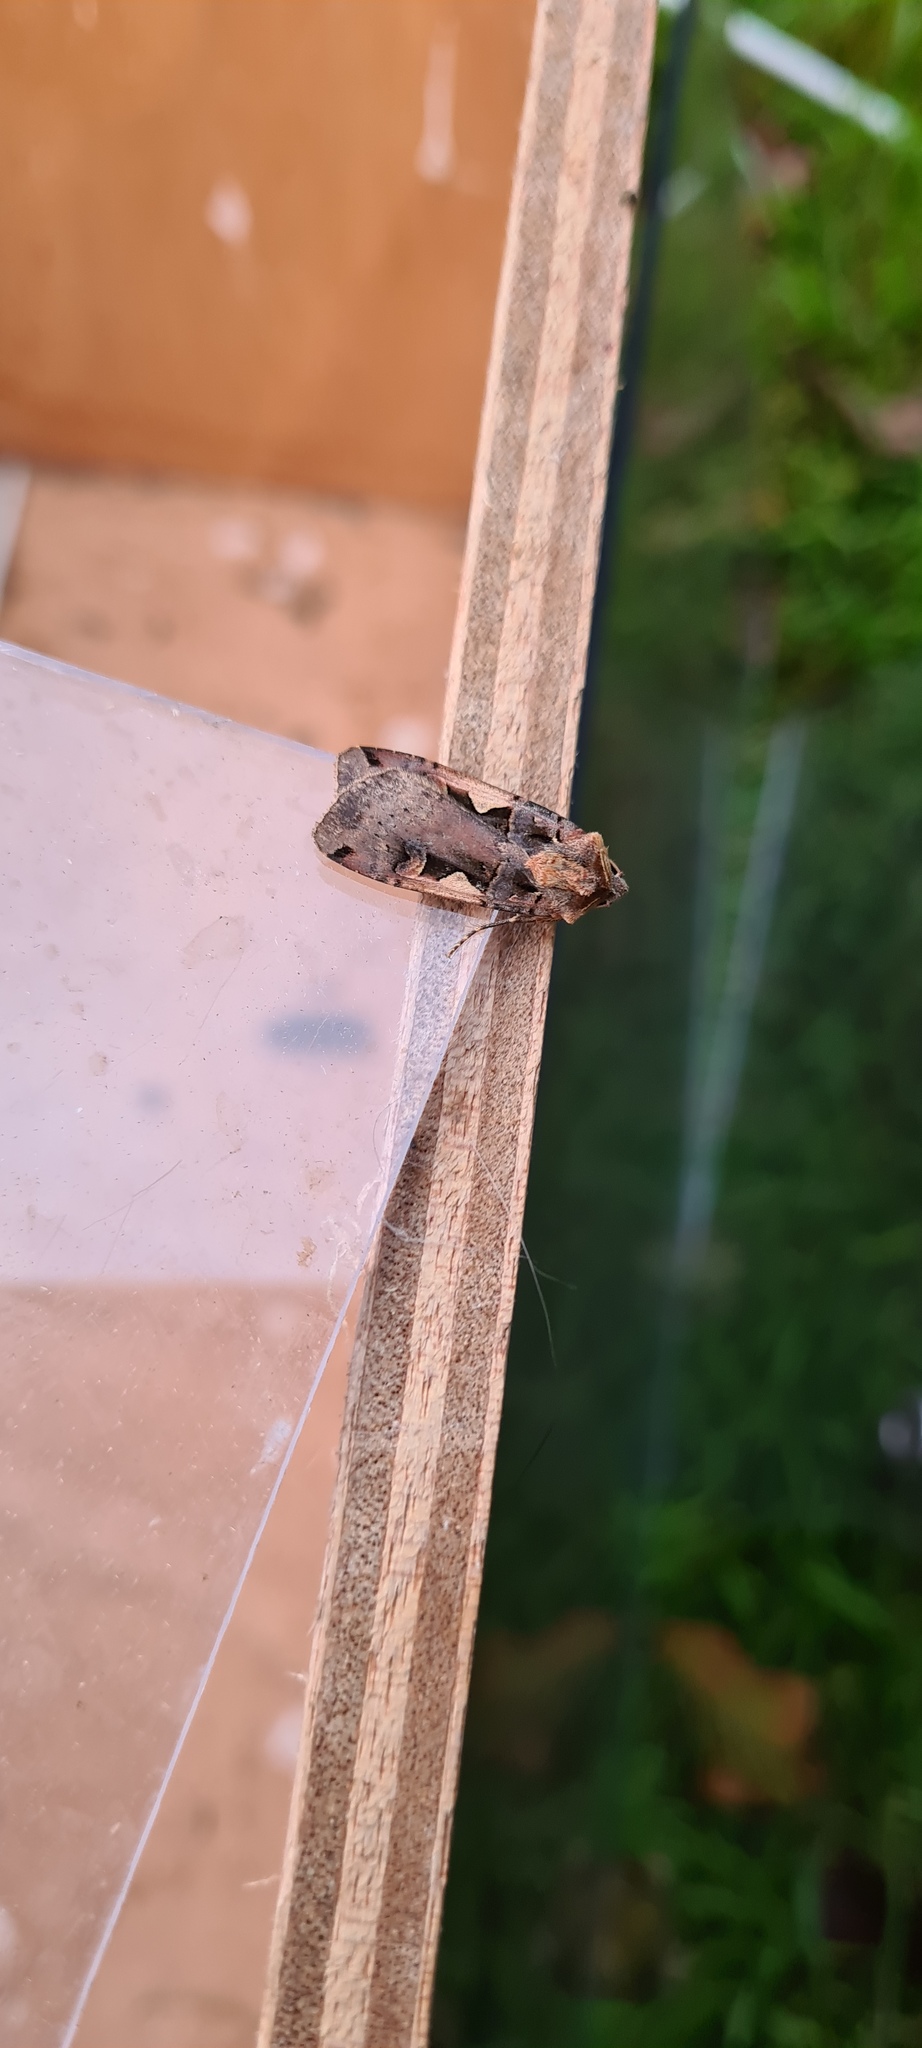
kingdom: Animalia
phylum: Arthropoda
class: Insecta
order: Lepidoptera
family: Noctuidae
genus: Xestia
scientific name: Xestia c-nigrum
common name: Setaceous hebrew character
